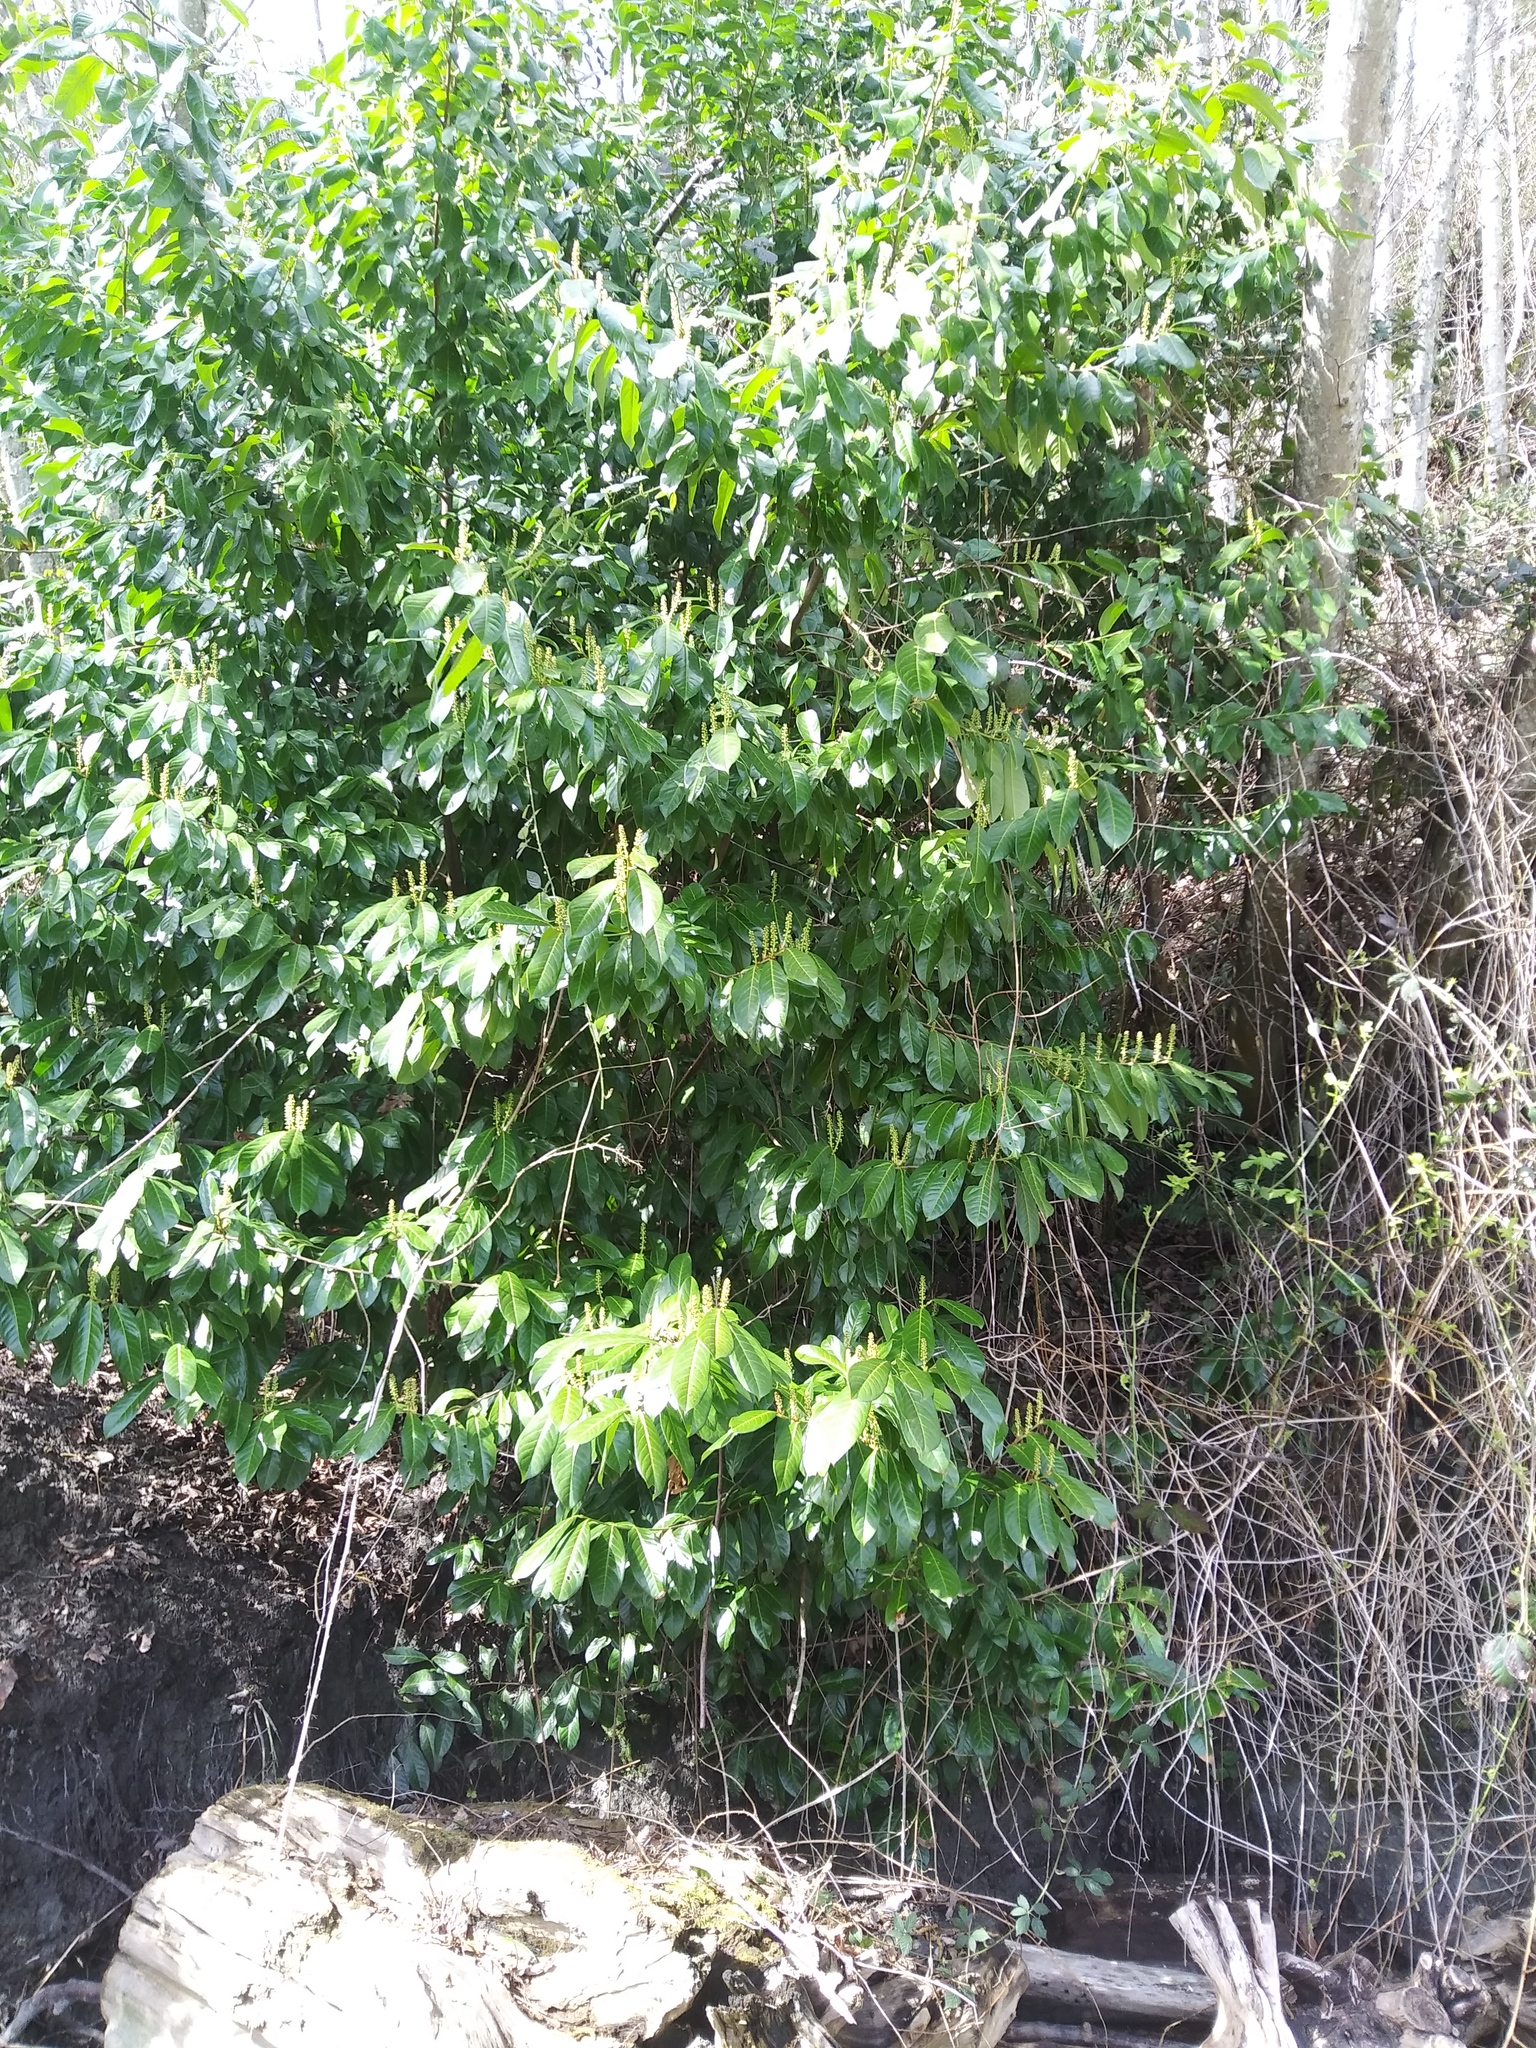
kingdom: Plantae
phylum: Tracheophyta
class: Magnoliopsida
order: Rosales
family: Rosaceae
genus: Prunus
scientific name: Prunus laurocerasus
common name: Cherry laurel
